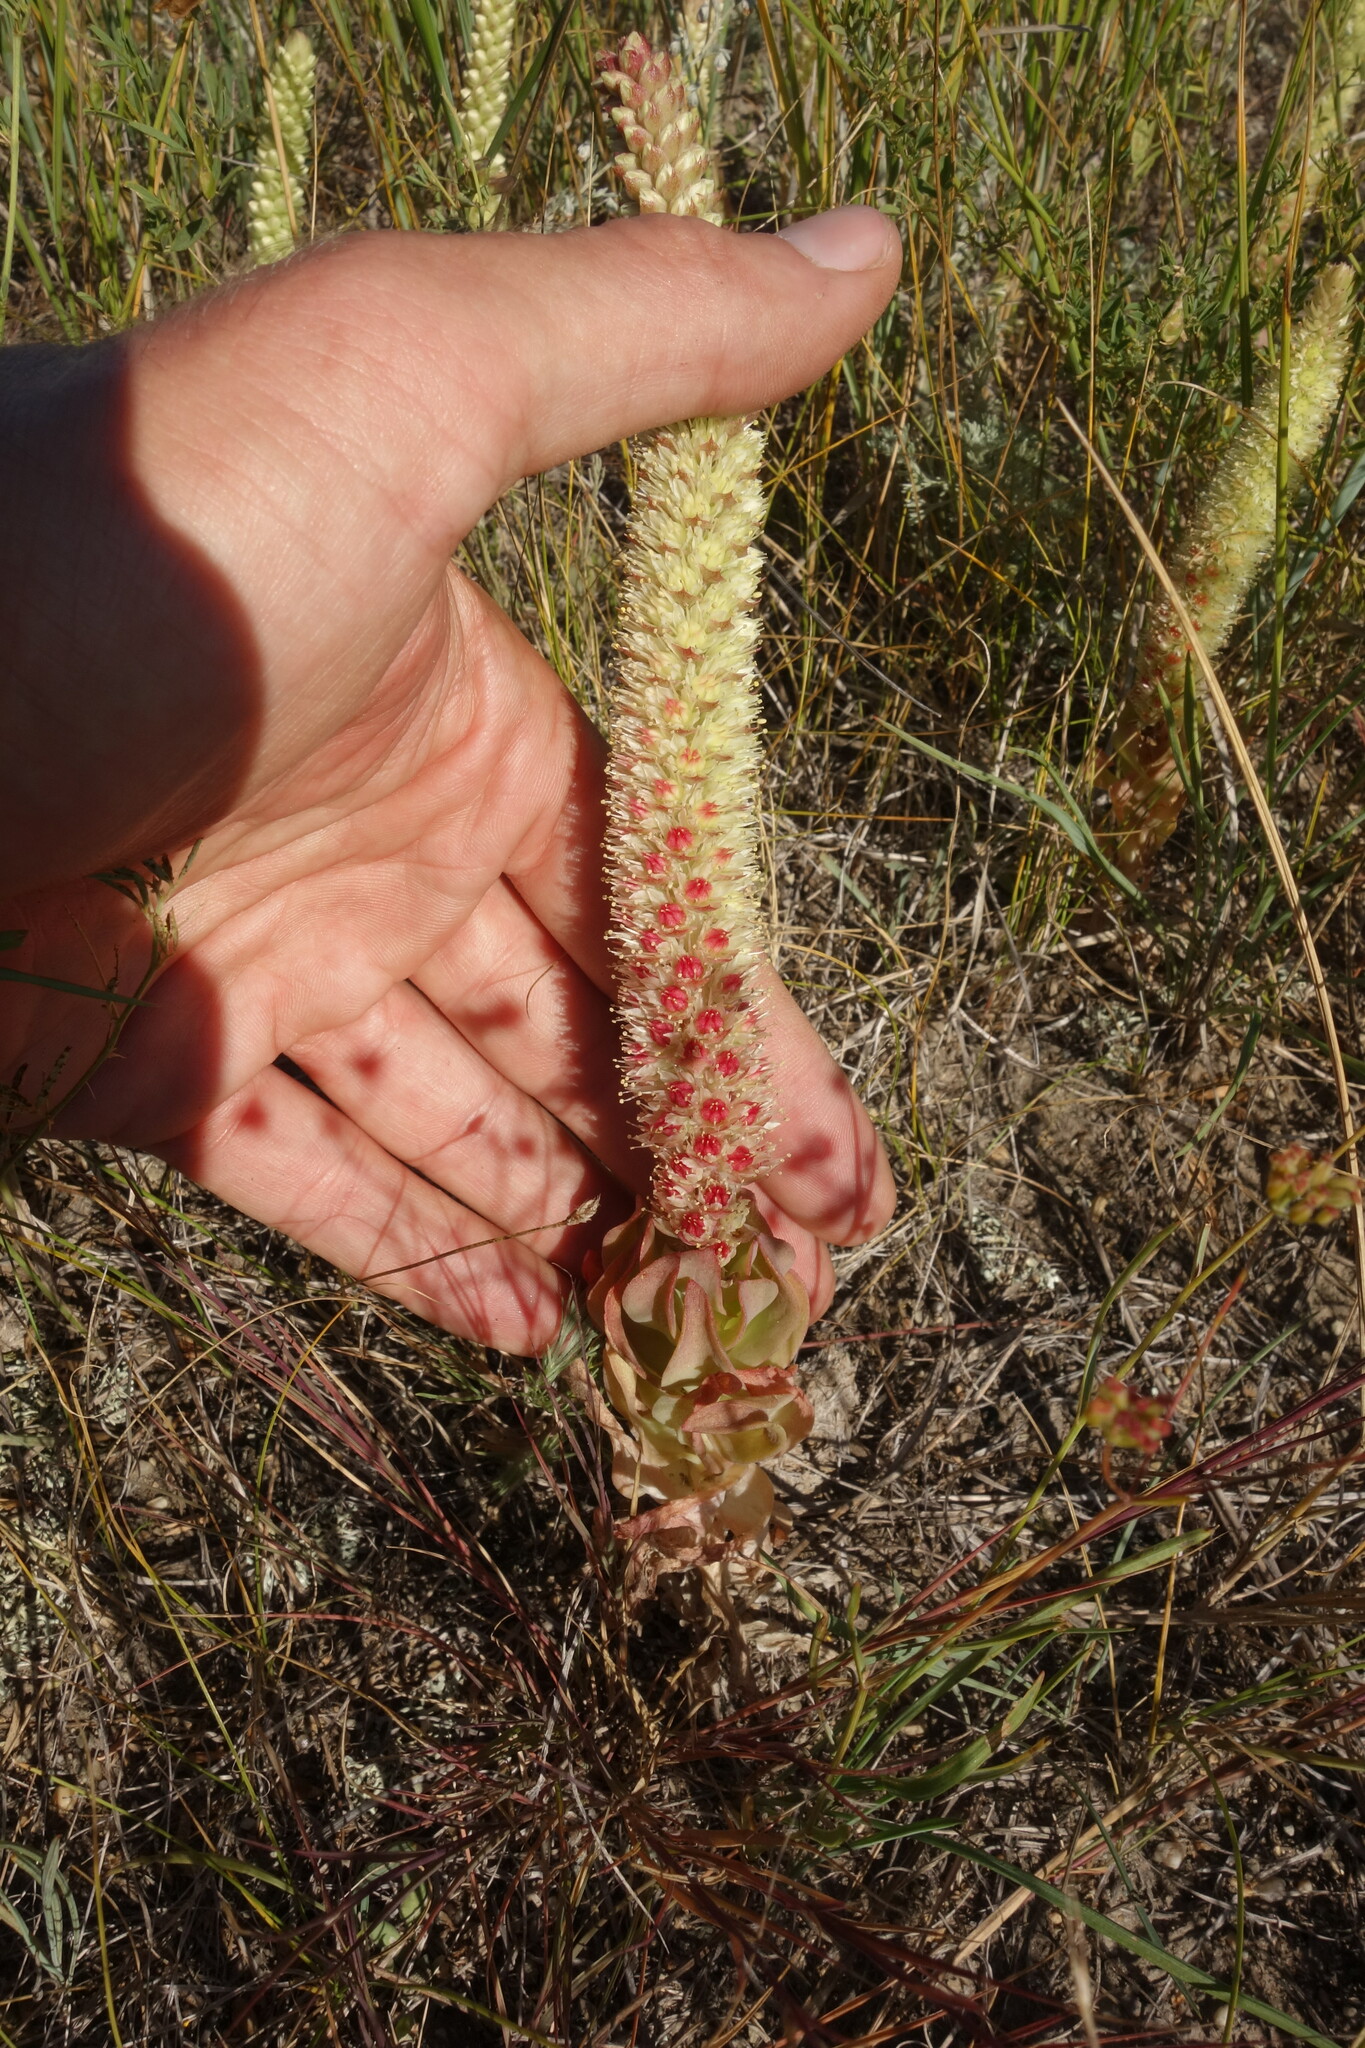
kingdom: Plantae
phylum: Tracheophyta
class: Magnoliopsida
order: Saxifragales
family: Crassulaceae
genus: Orostachys
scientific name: Orostachys malacophylla
